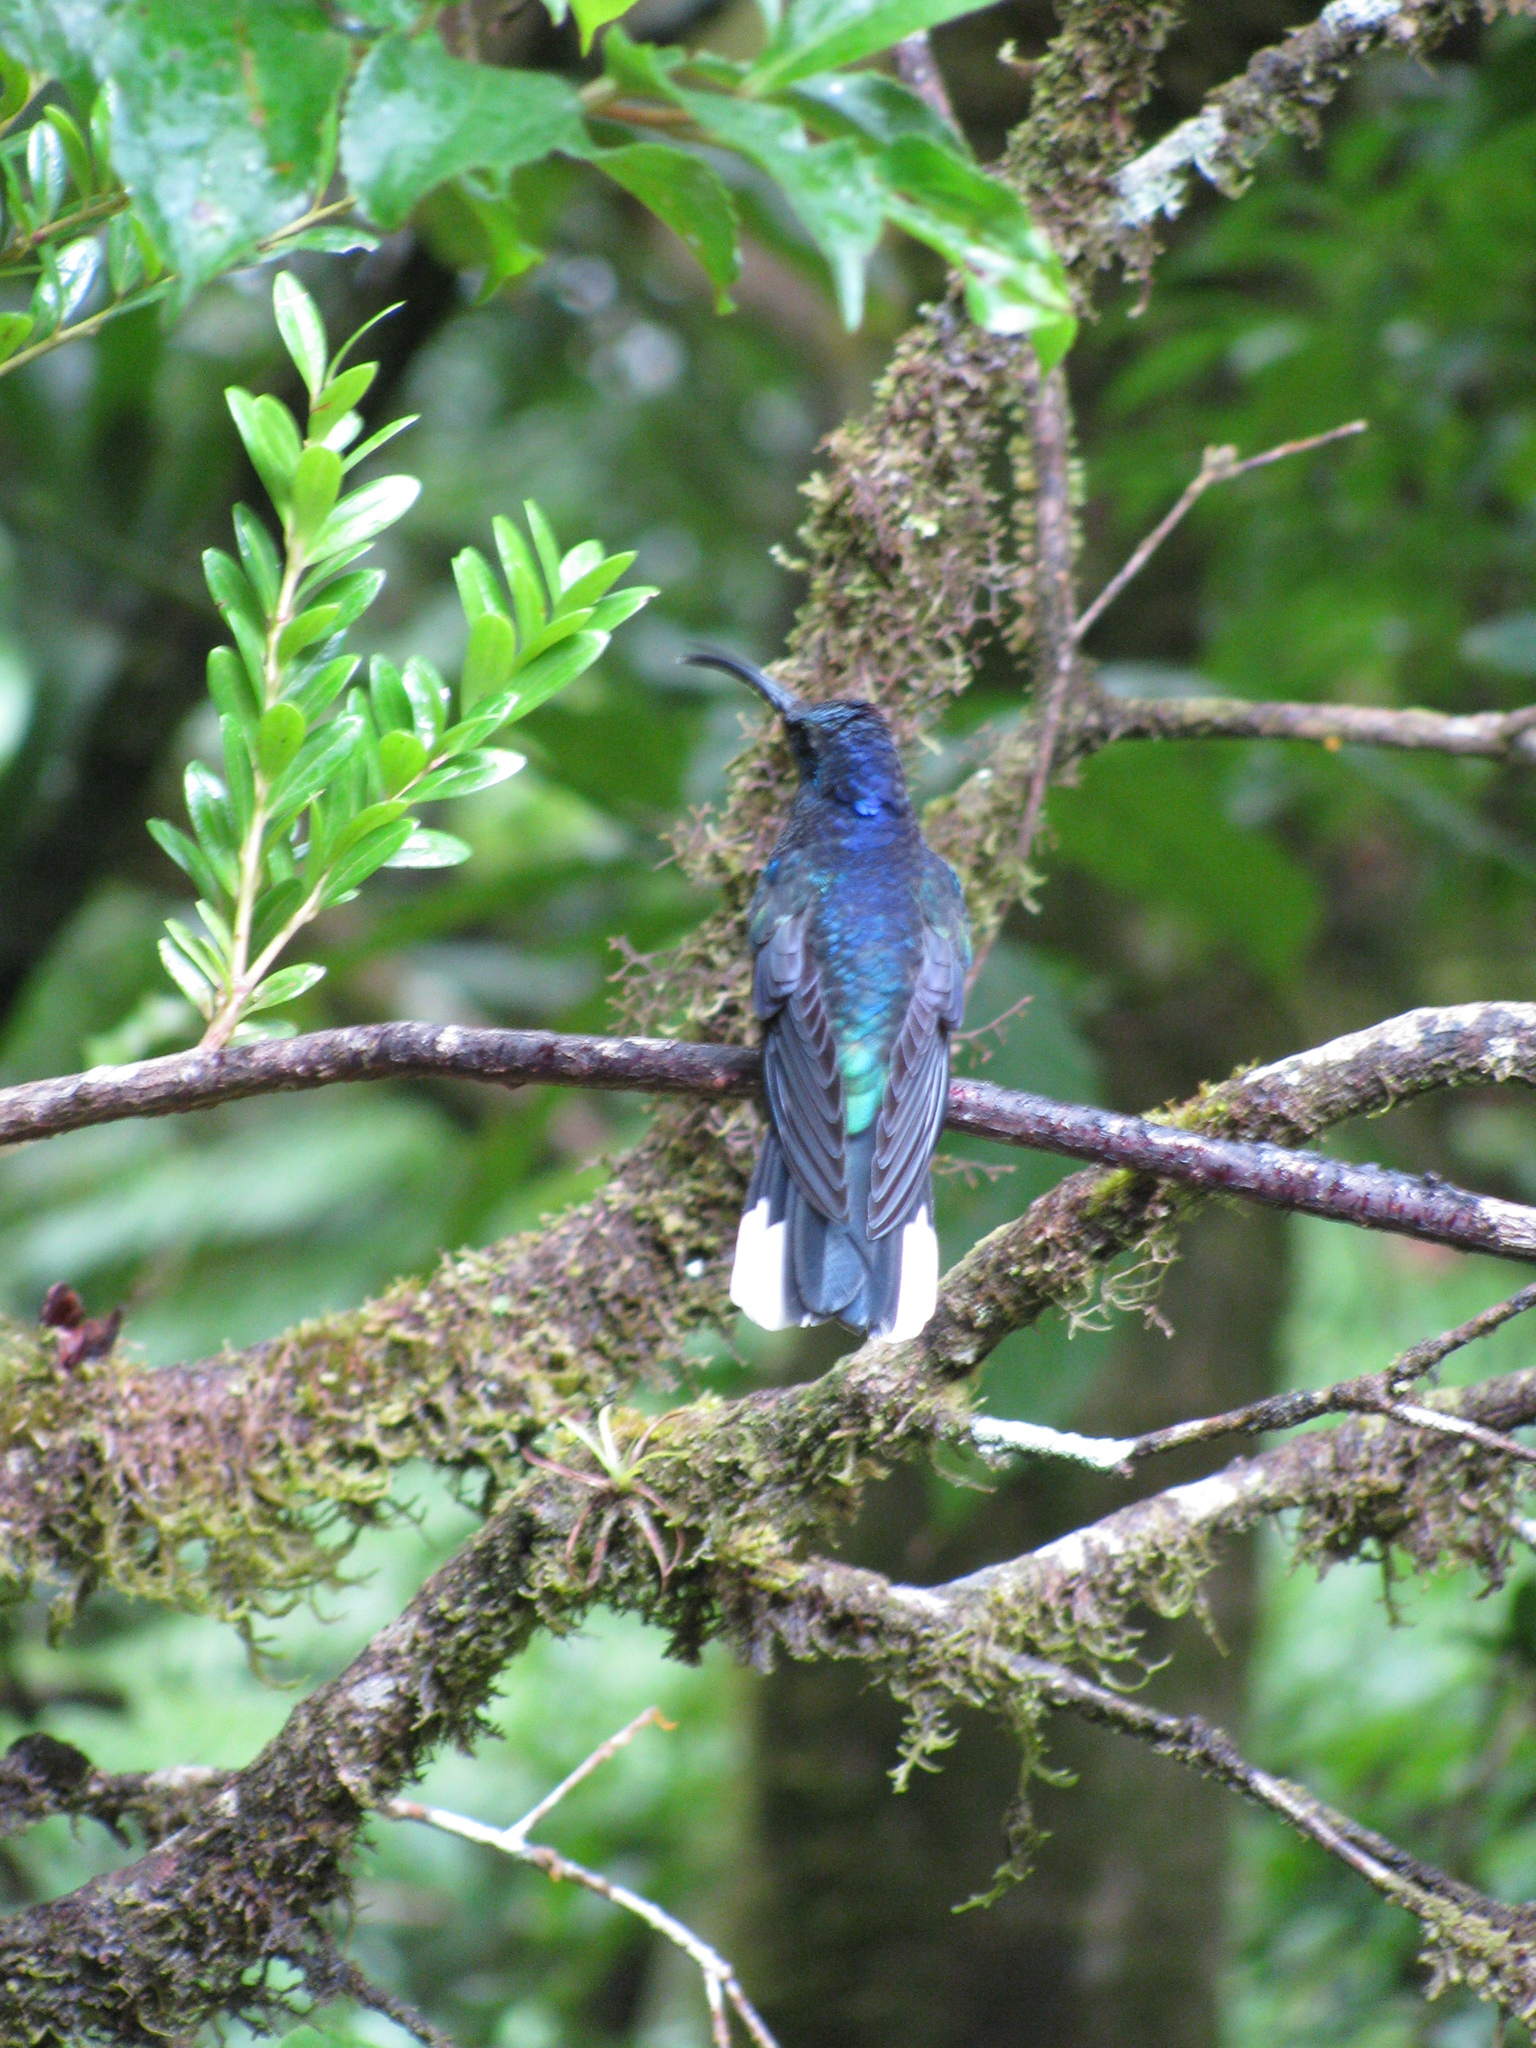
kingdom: Animalia
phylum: Chordata
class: Aves
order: Apodiformes
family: Trochilidae
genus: Campylopterus
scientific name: Campylopterus hemileucurus
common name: Violet sabrewing
